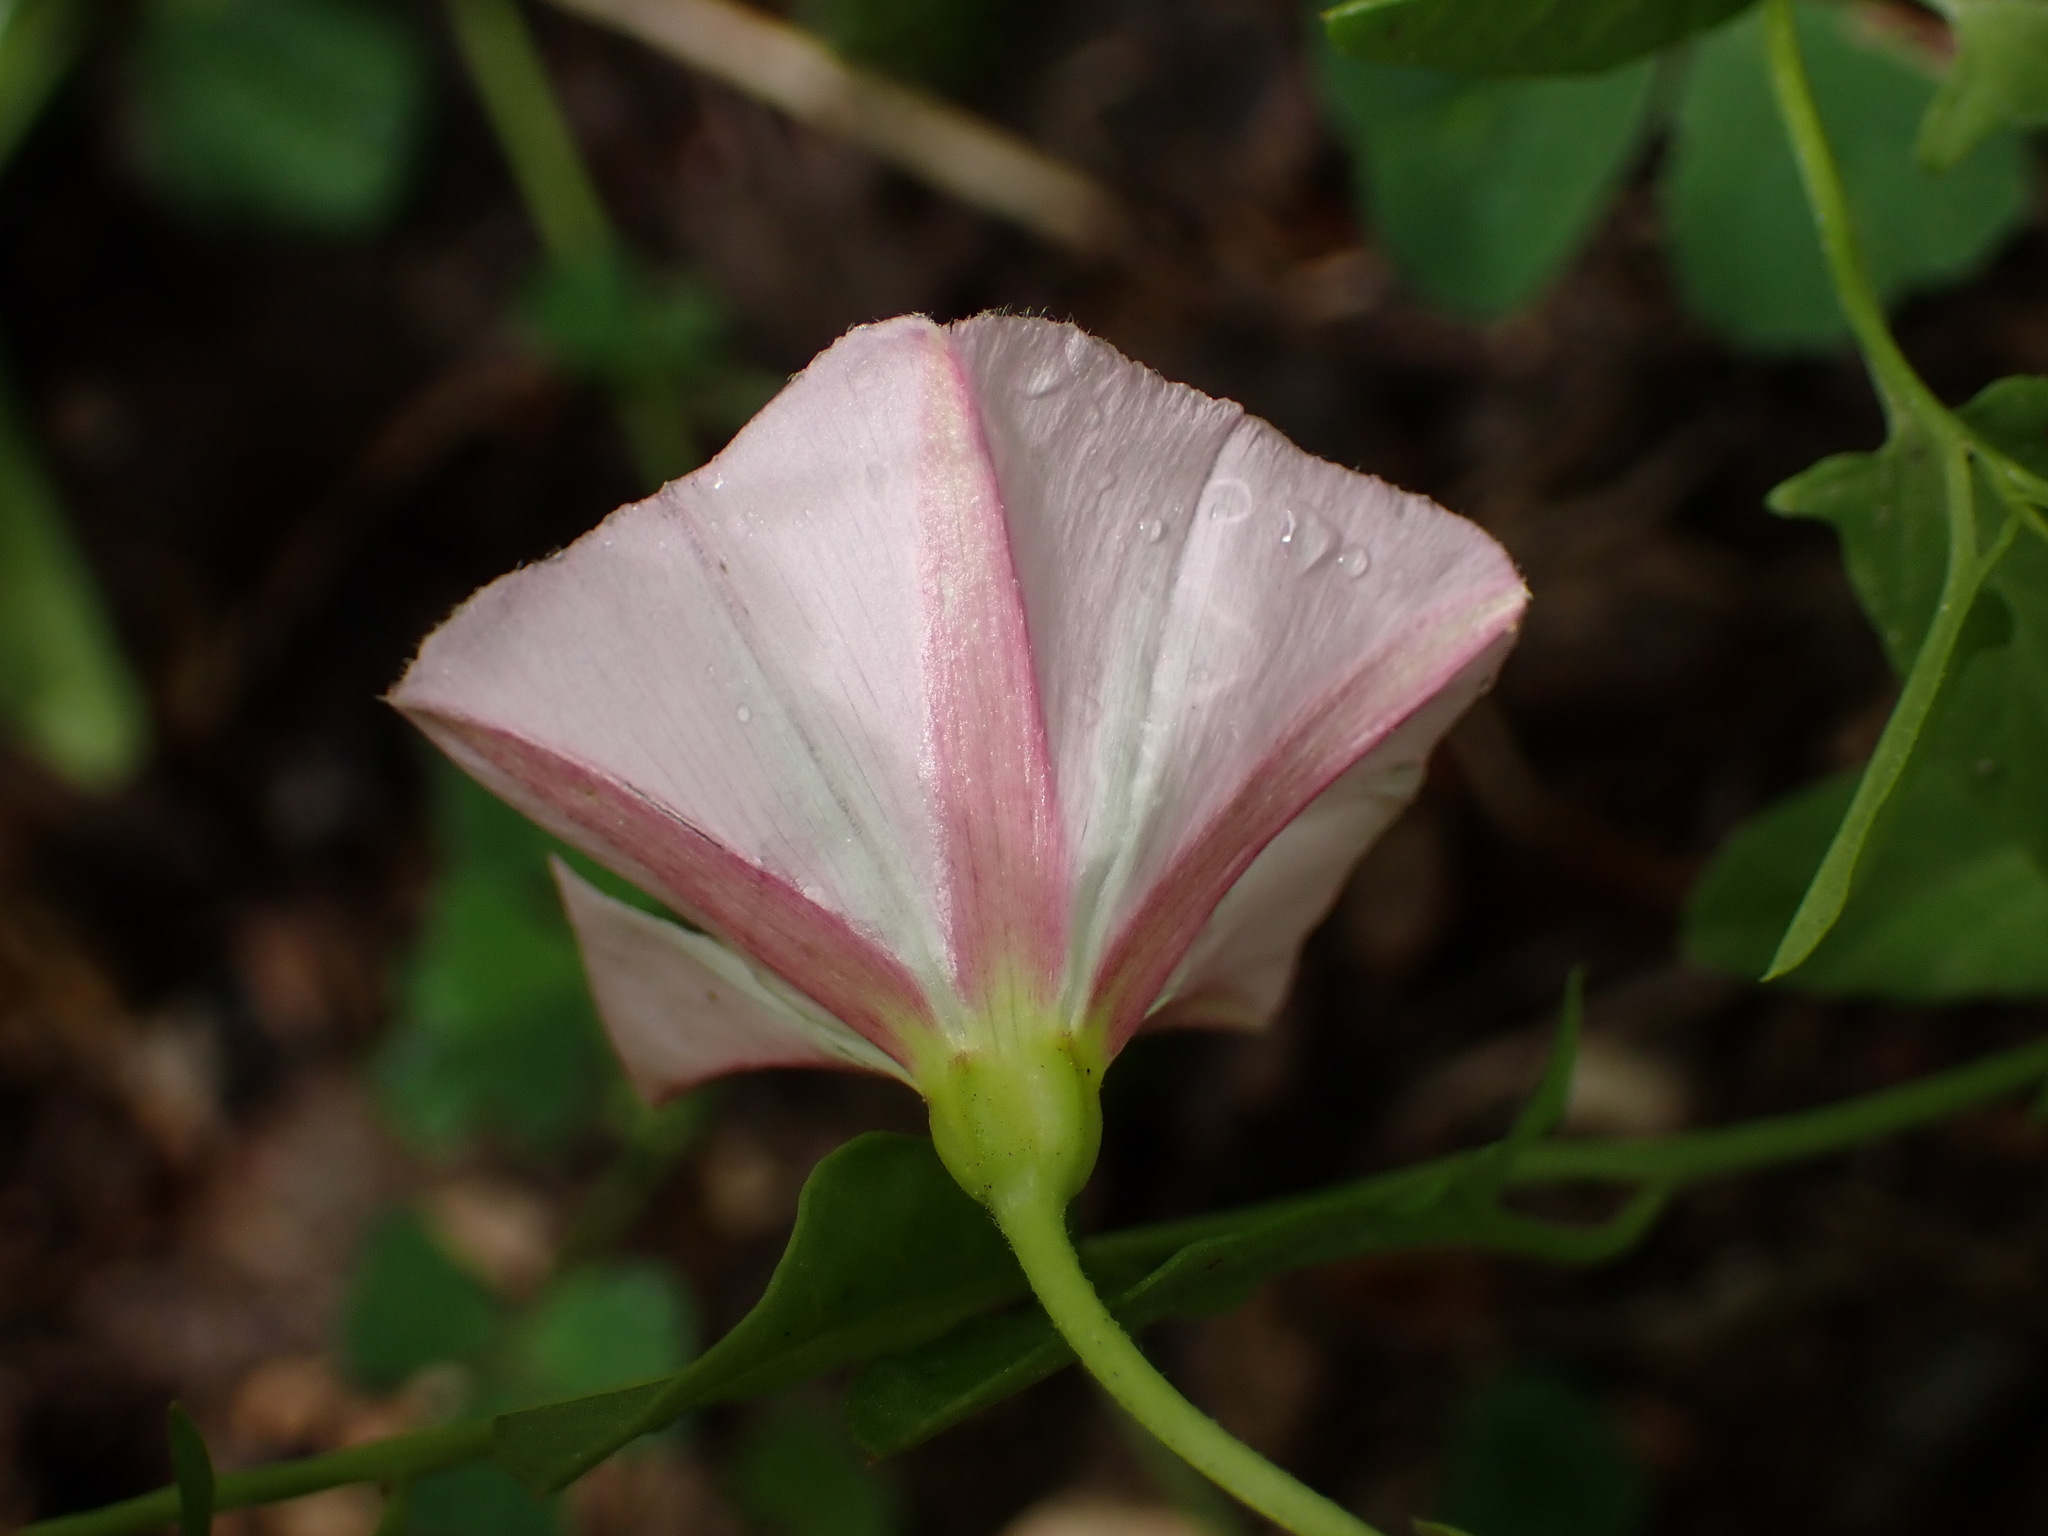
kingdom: Plantae
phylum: Tracheophyta
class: Magnoliopsida
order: Solanales
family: Convolvulaceae
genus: Convolvulus
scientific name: Convolvulus arvensis
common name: Field bindweed
